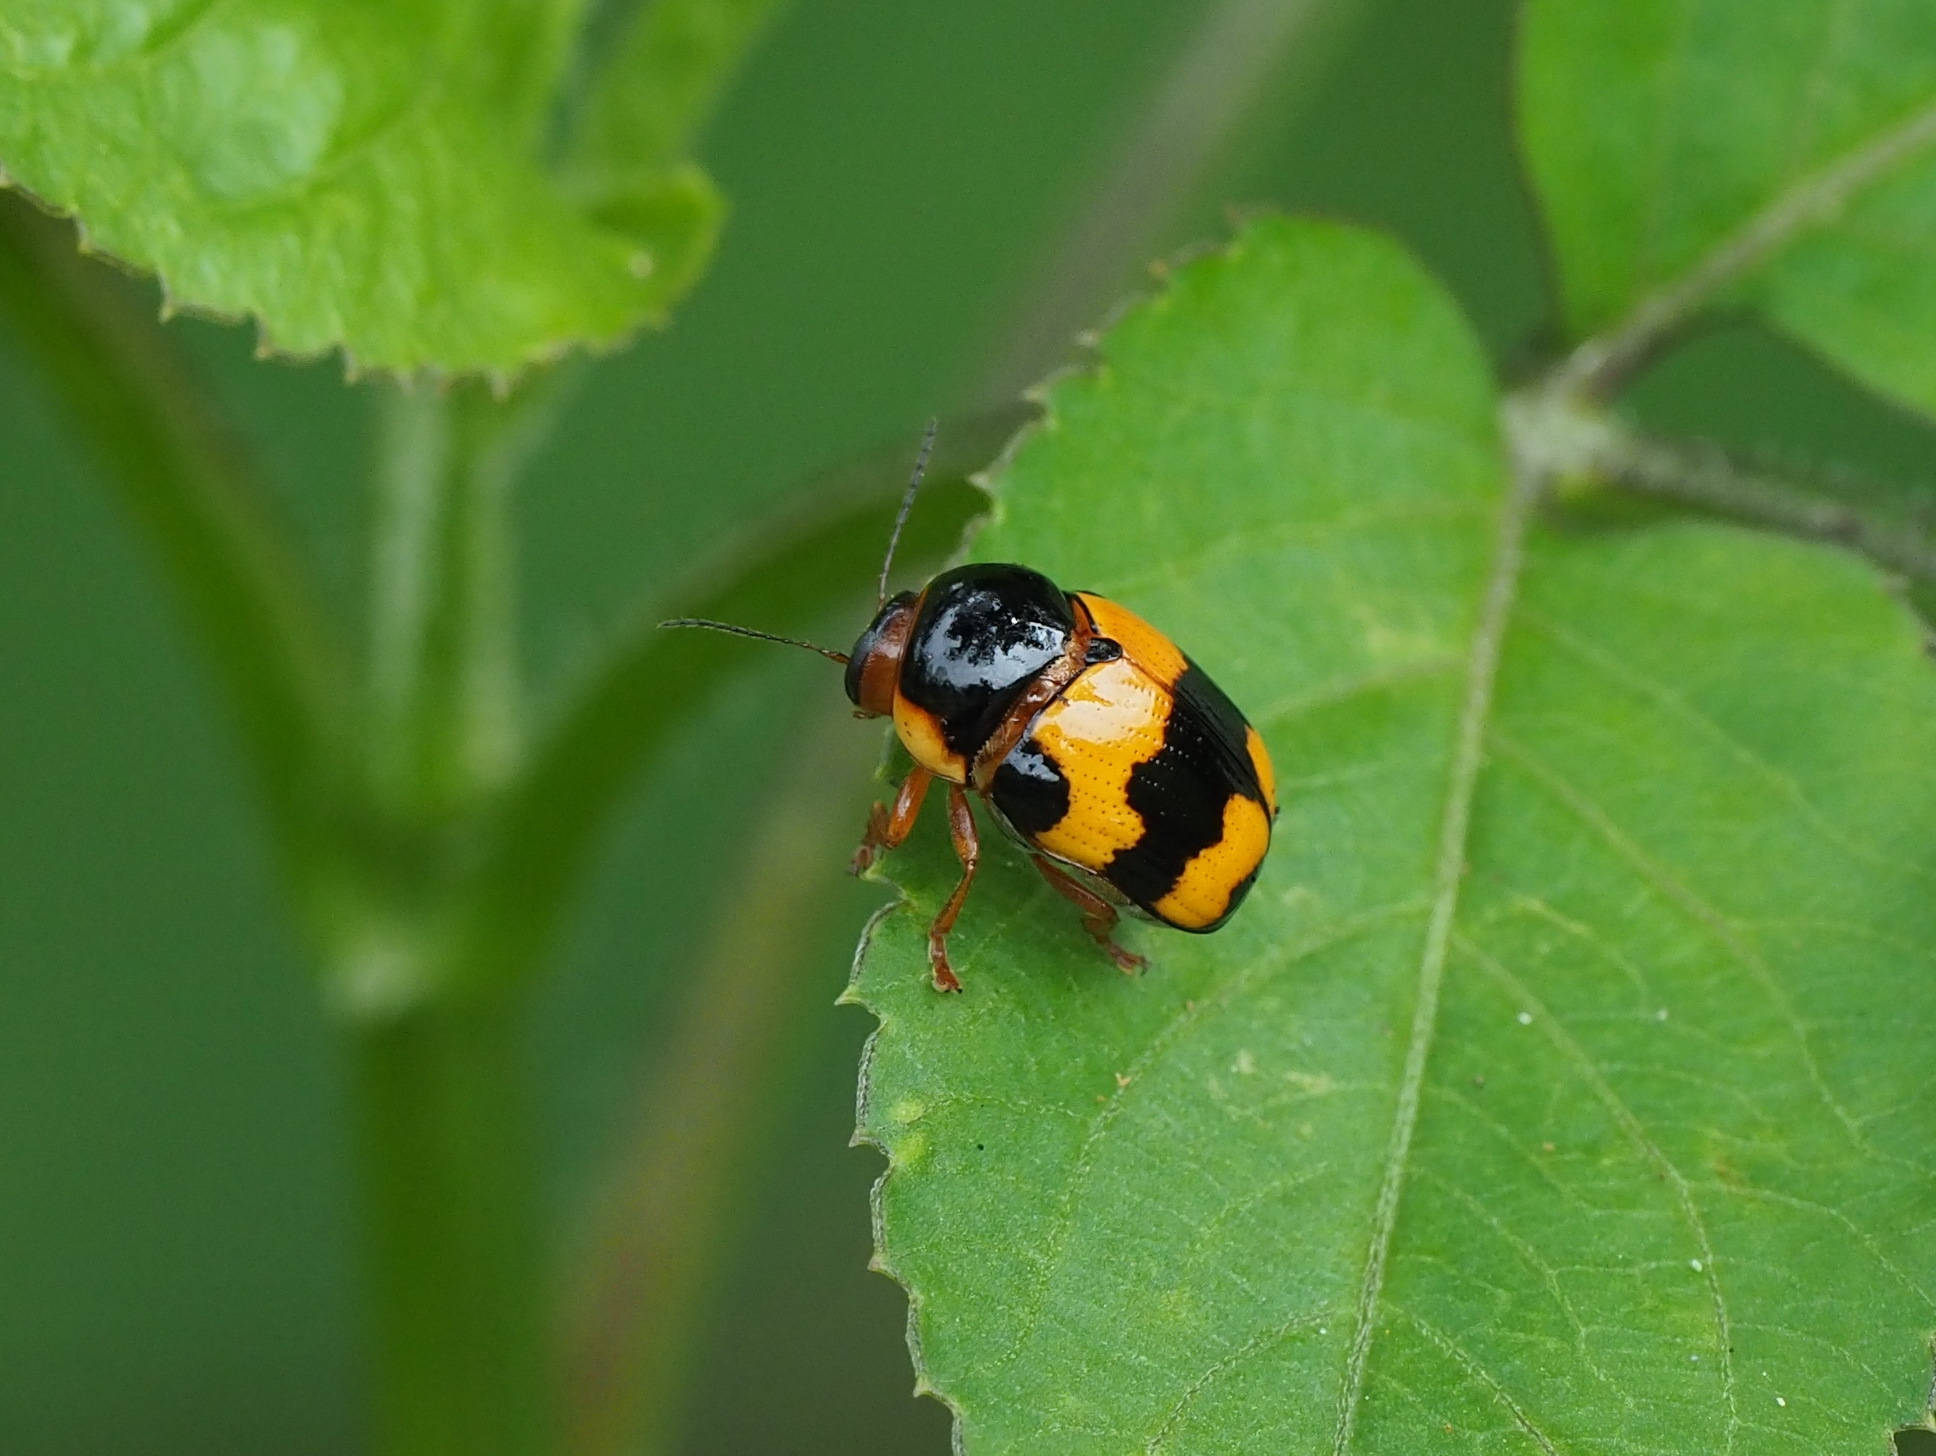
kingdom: Animalia
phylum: Arthropoda
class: Insecta
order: Coleoptera
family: Chrysomelidae
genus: Cryptocephalus
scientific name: Cryptocephalus formosanus
